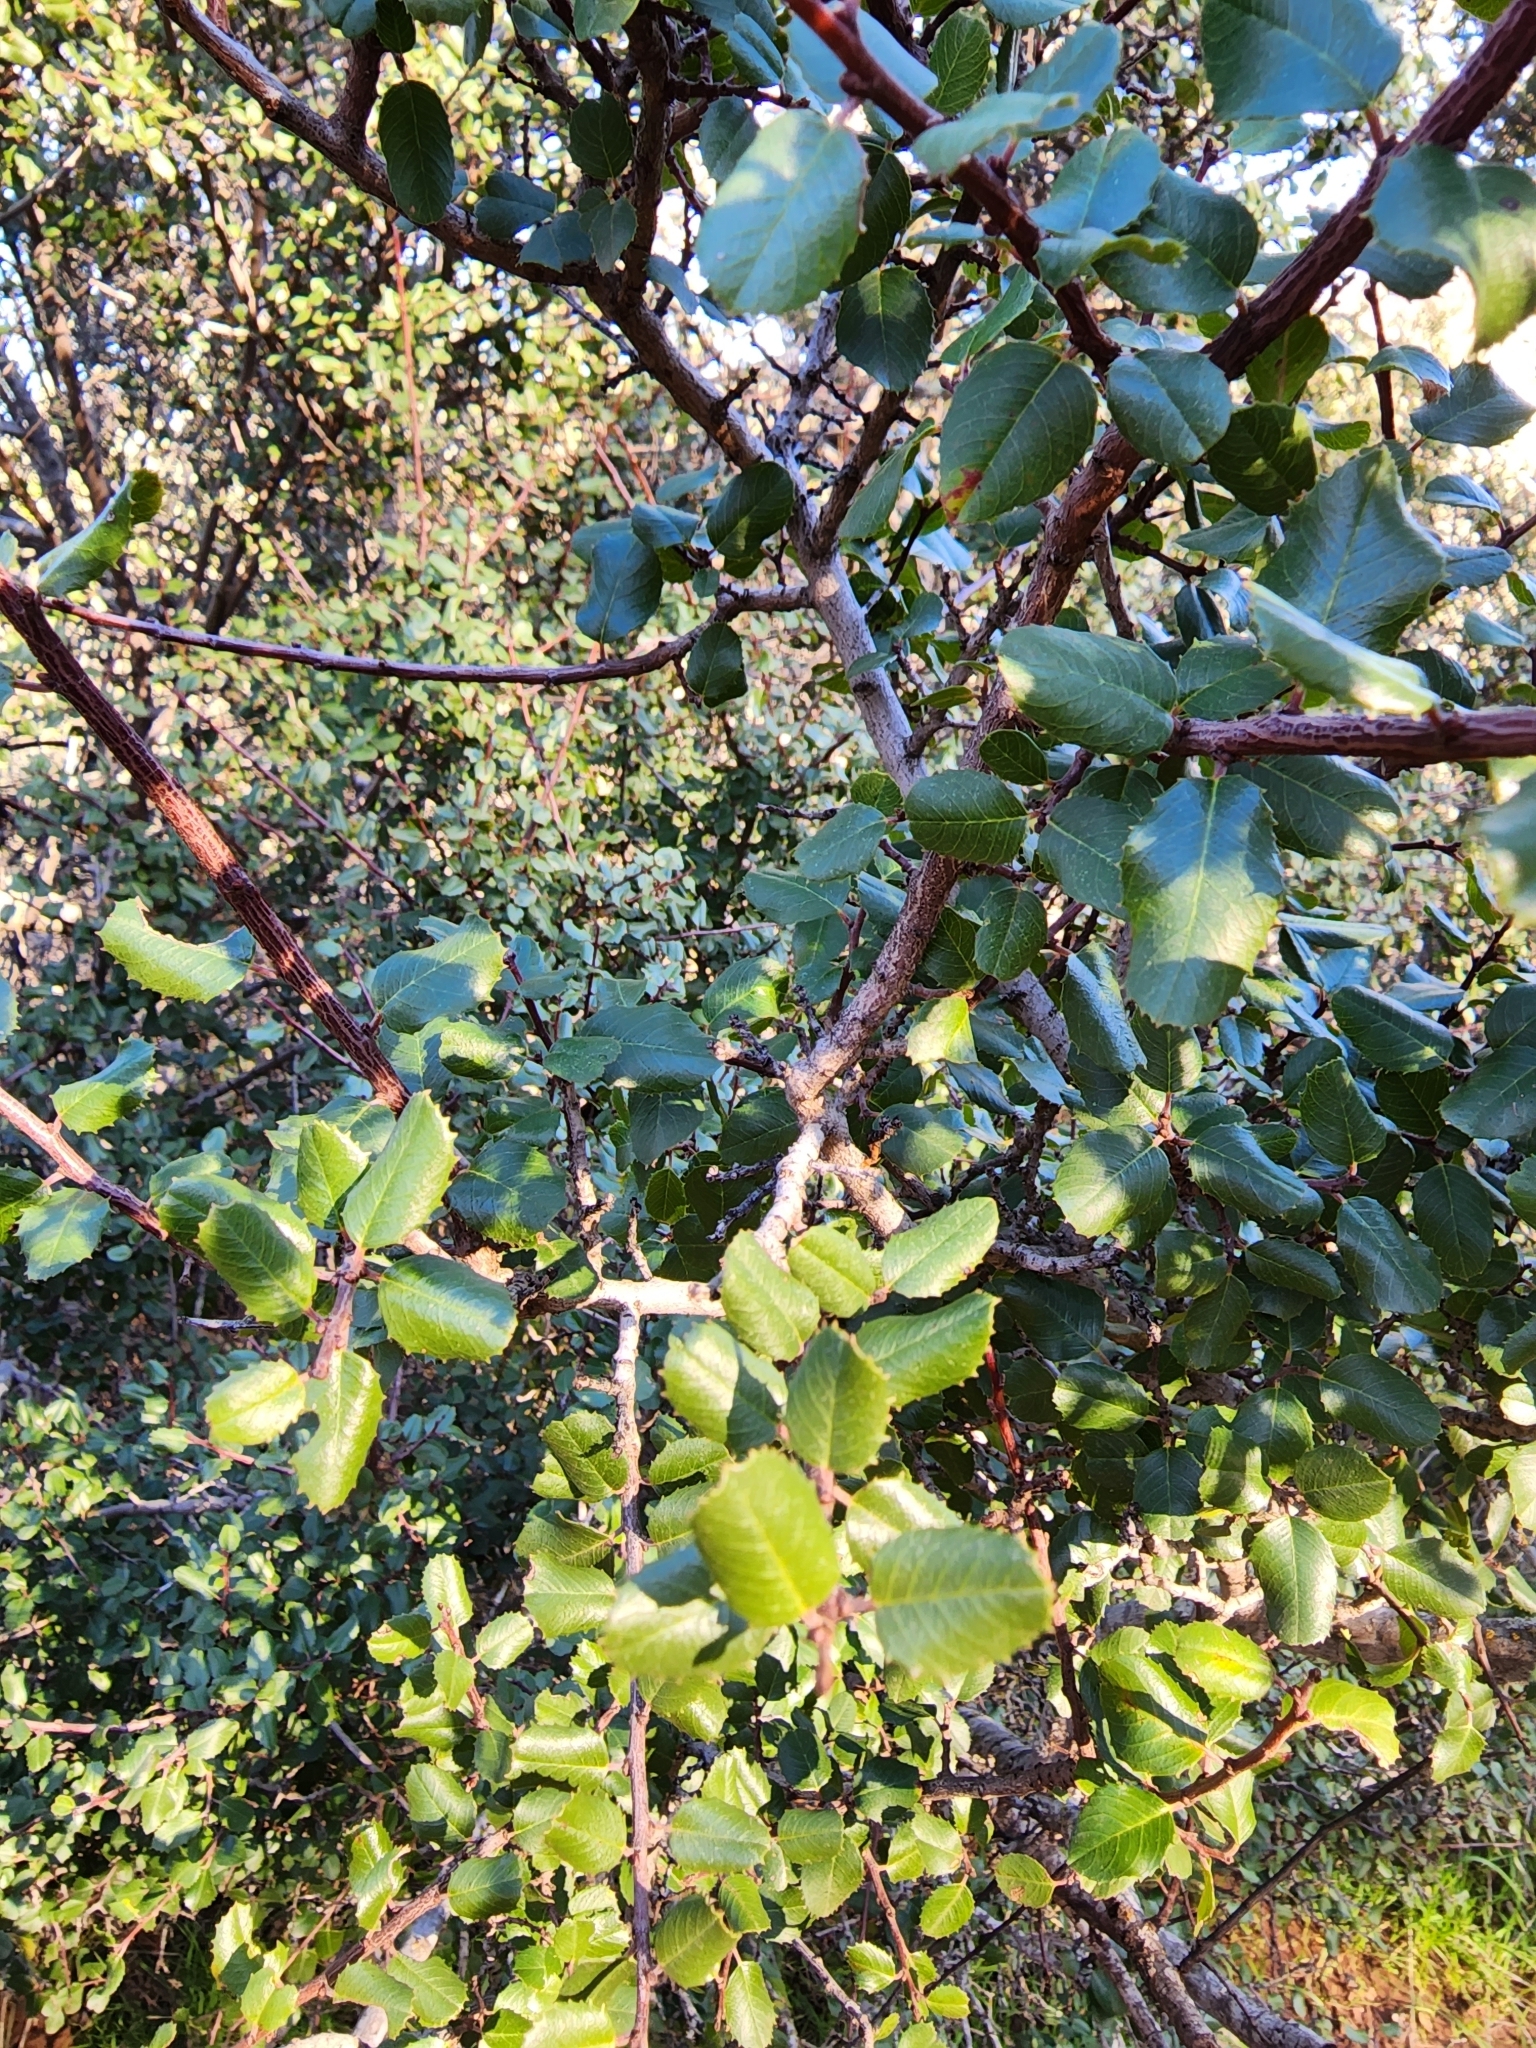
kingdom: Plantae
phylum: Tracheophyta
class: Magnoliopsida
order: Rosales
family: Rhamnaceae
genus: Endotropis
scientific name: Endotropis crocea
